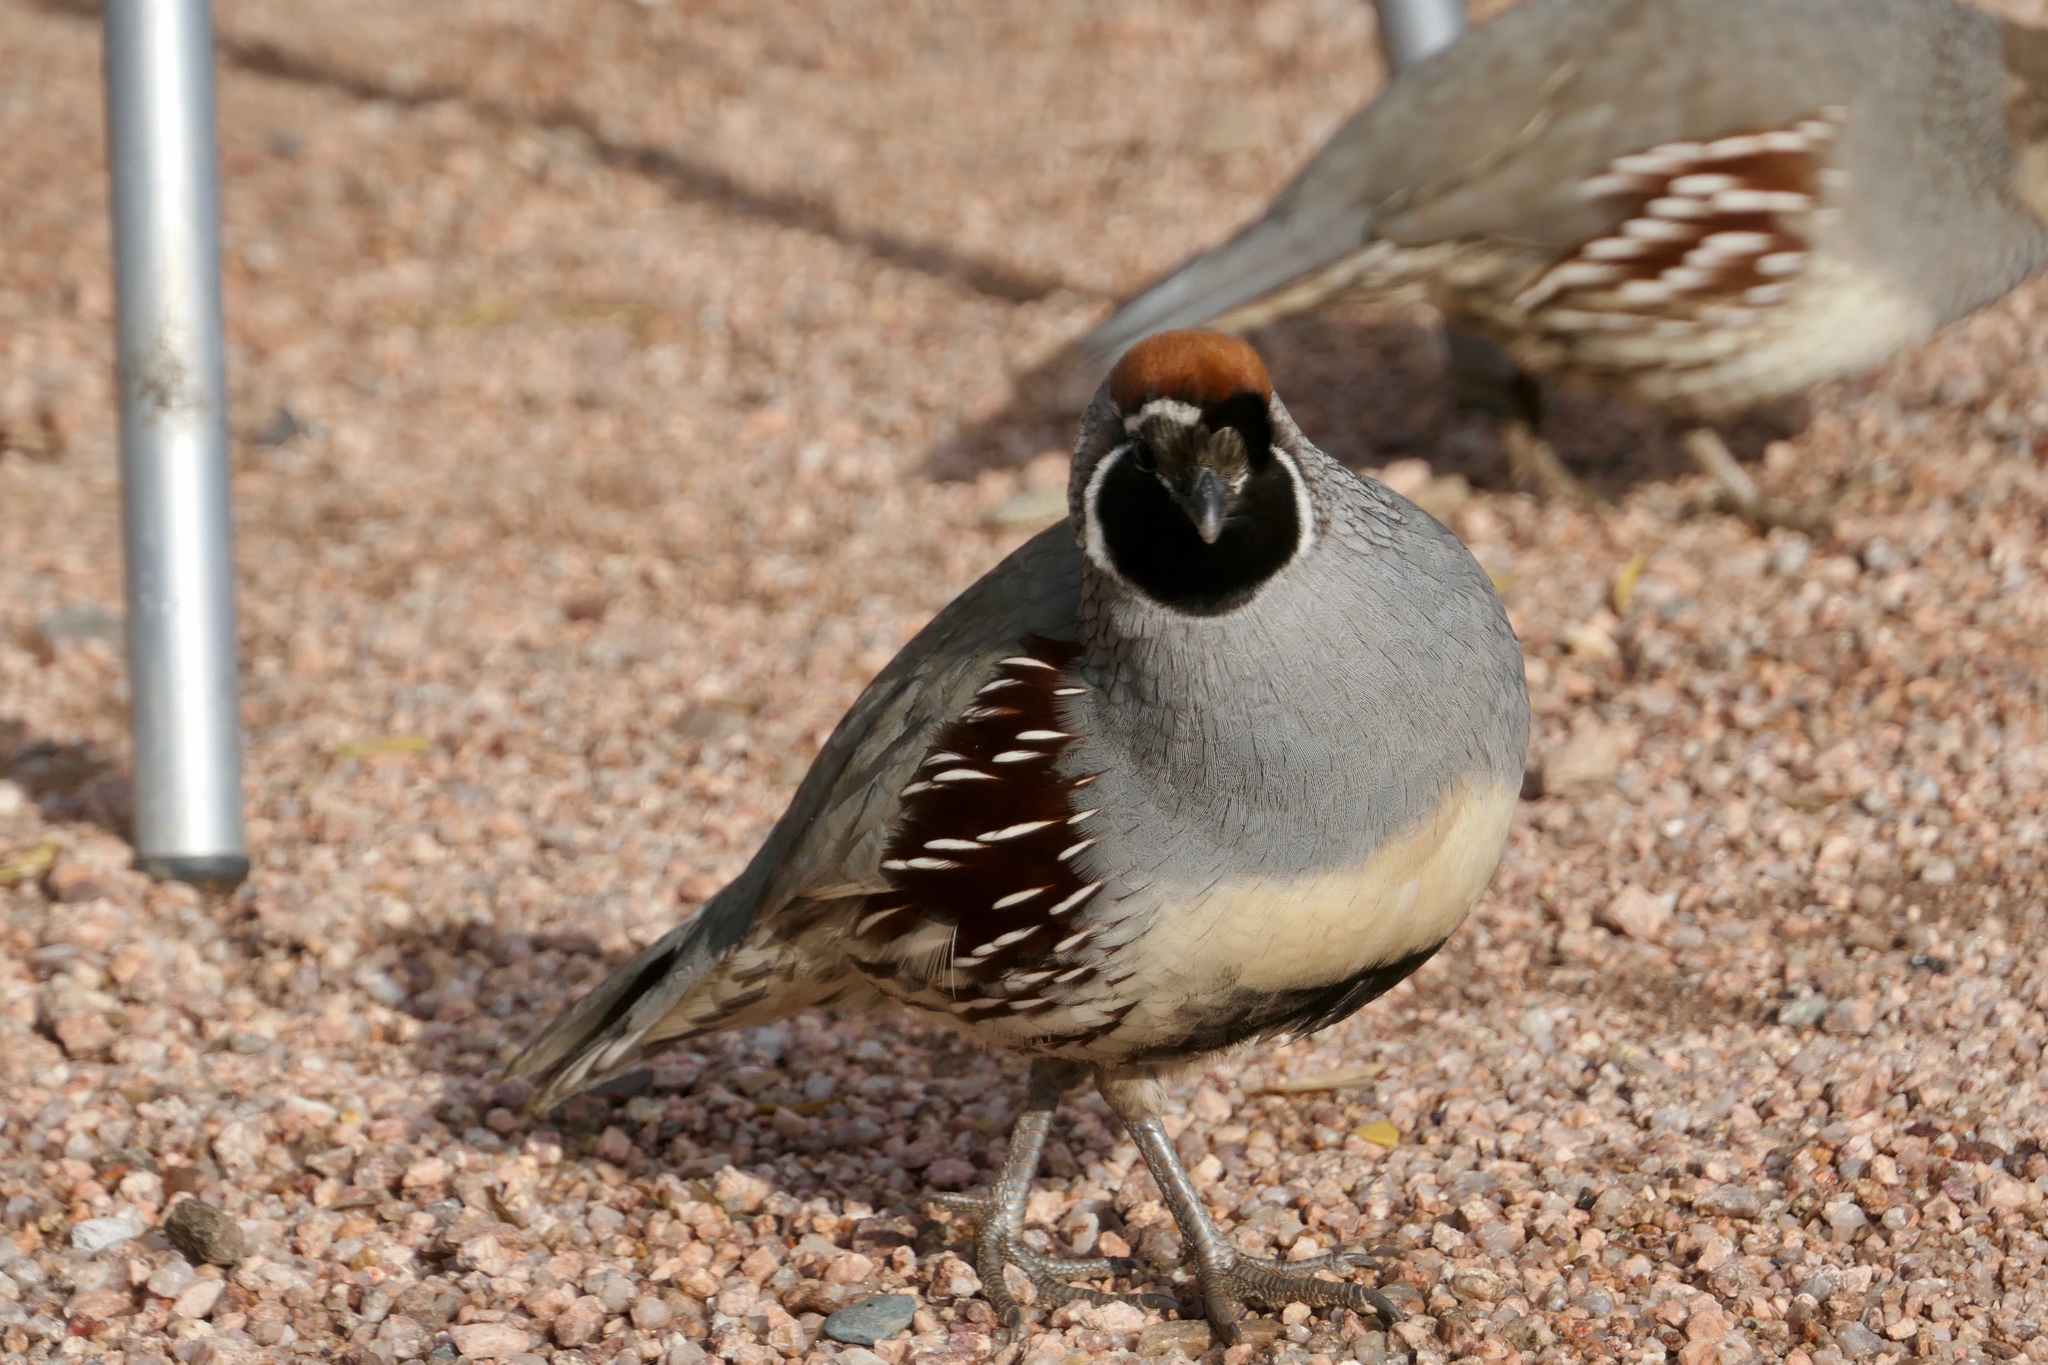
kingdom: Animalia
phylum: Chordata
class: Aves
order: Galliformes
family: Odontophoridae
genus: Callipepla
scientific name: Callipepla gambelii
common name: Gambel's quail
